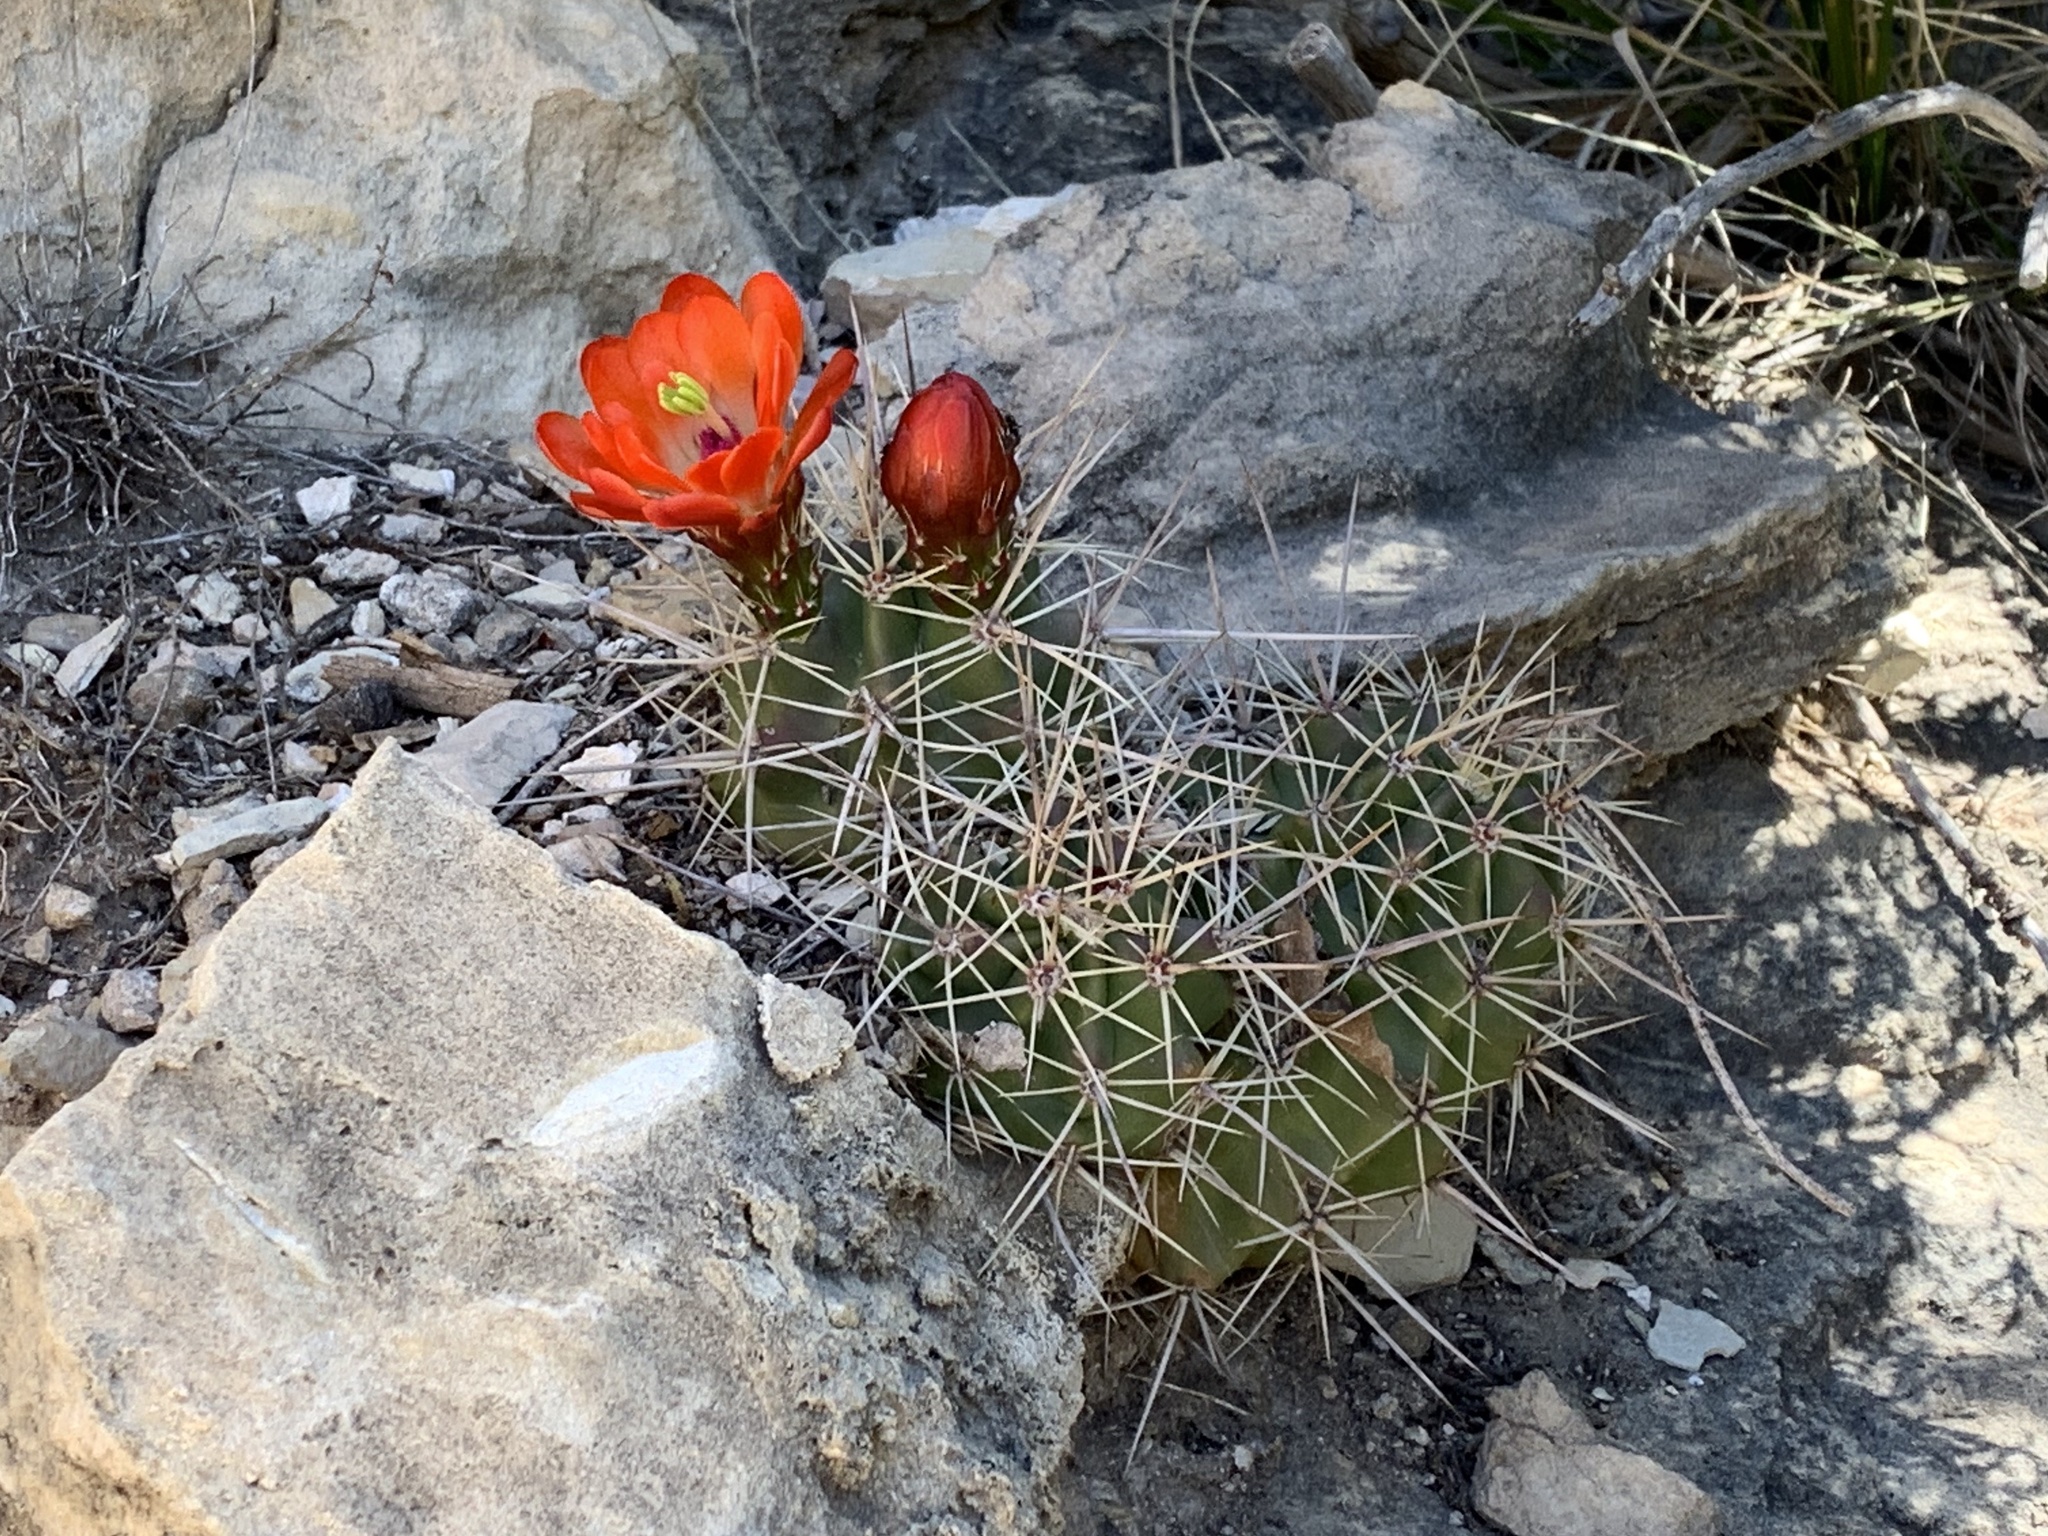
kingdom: Plantae
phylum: Tracheophyta
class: Magnoliopsida
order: Caryophyllales
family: Cactaceae
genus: Echinocereus
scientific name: Echinocereus coccineus
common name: Scarlet hedgehog cactus
